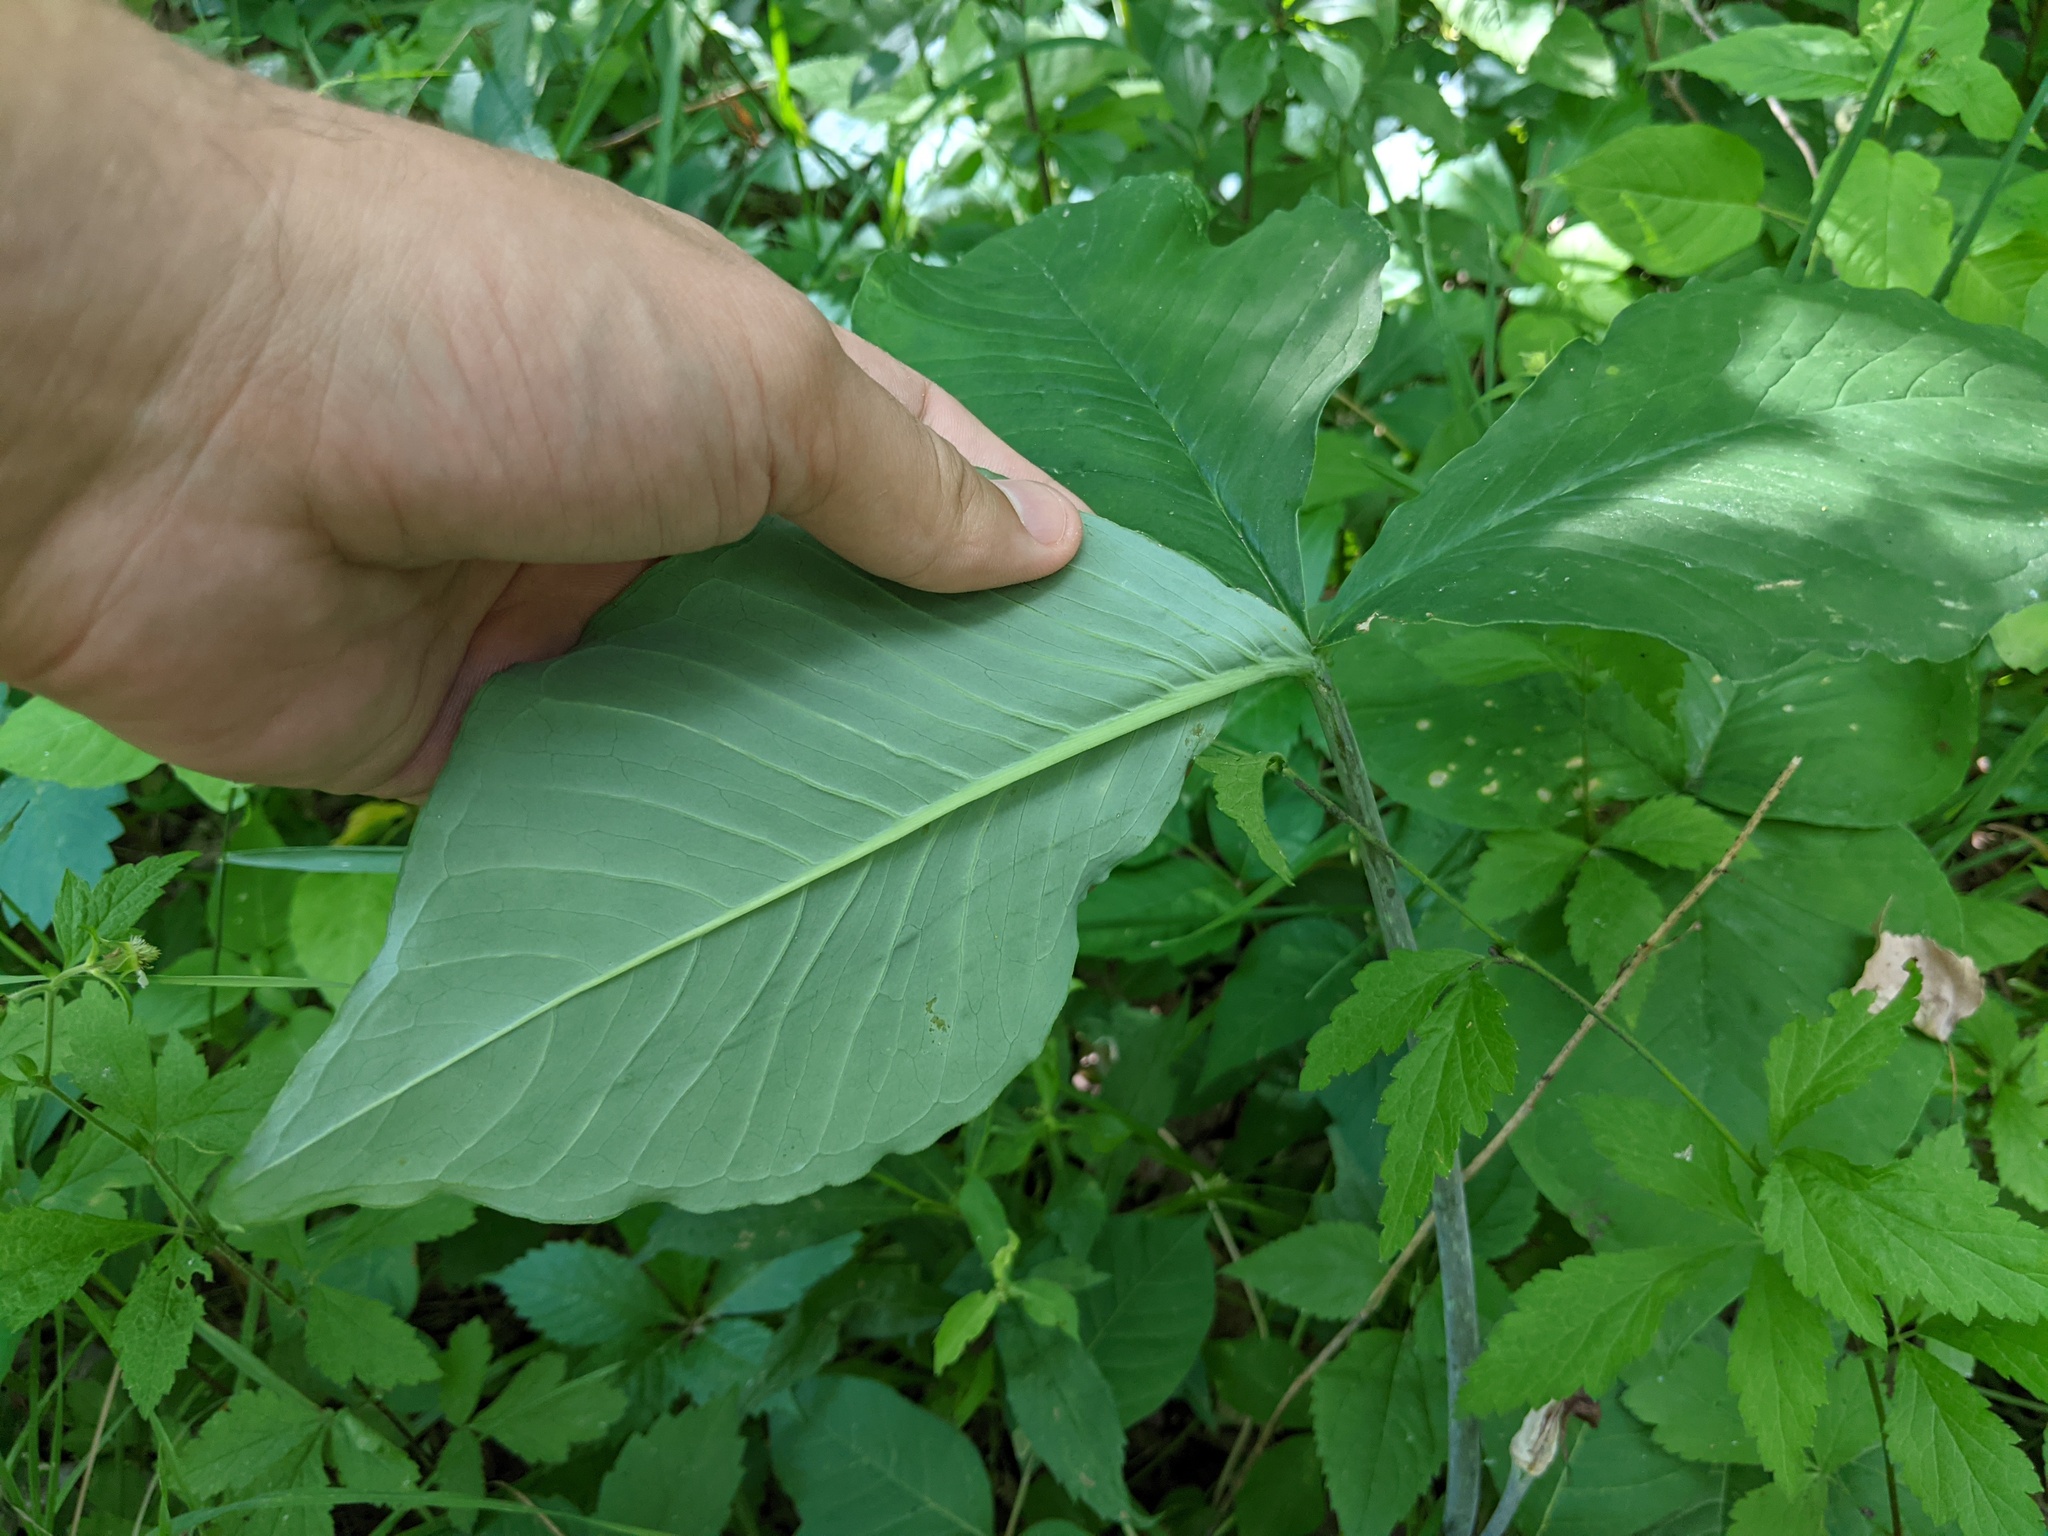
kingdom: Plantae
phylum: Tracheophyta
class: Liliopsida
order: Alismatales
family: Araceae
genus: Arisaema
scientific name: Arisaema triphyllum
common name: Jack-in-the-pulpit
